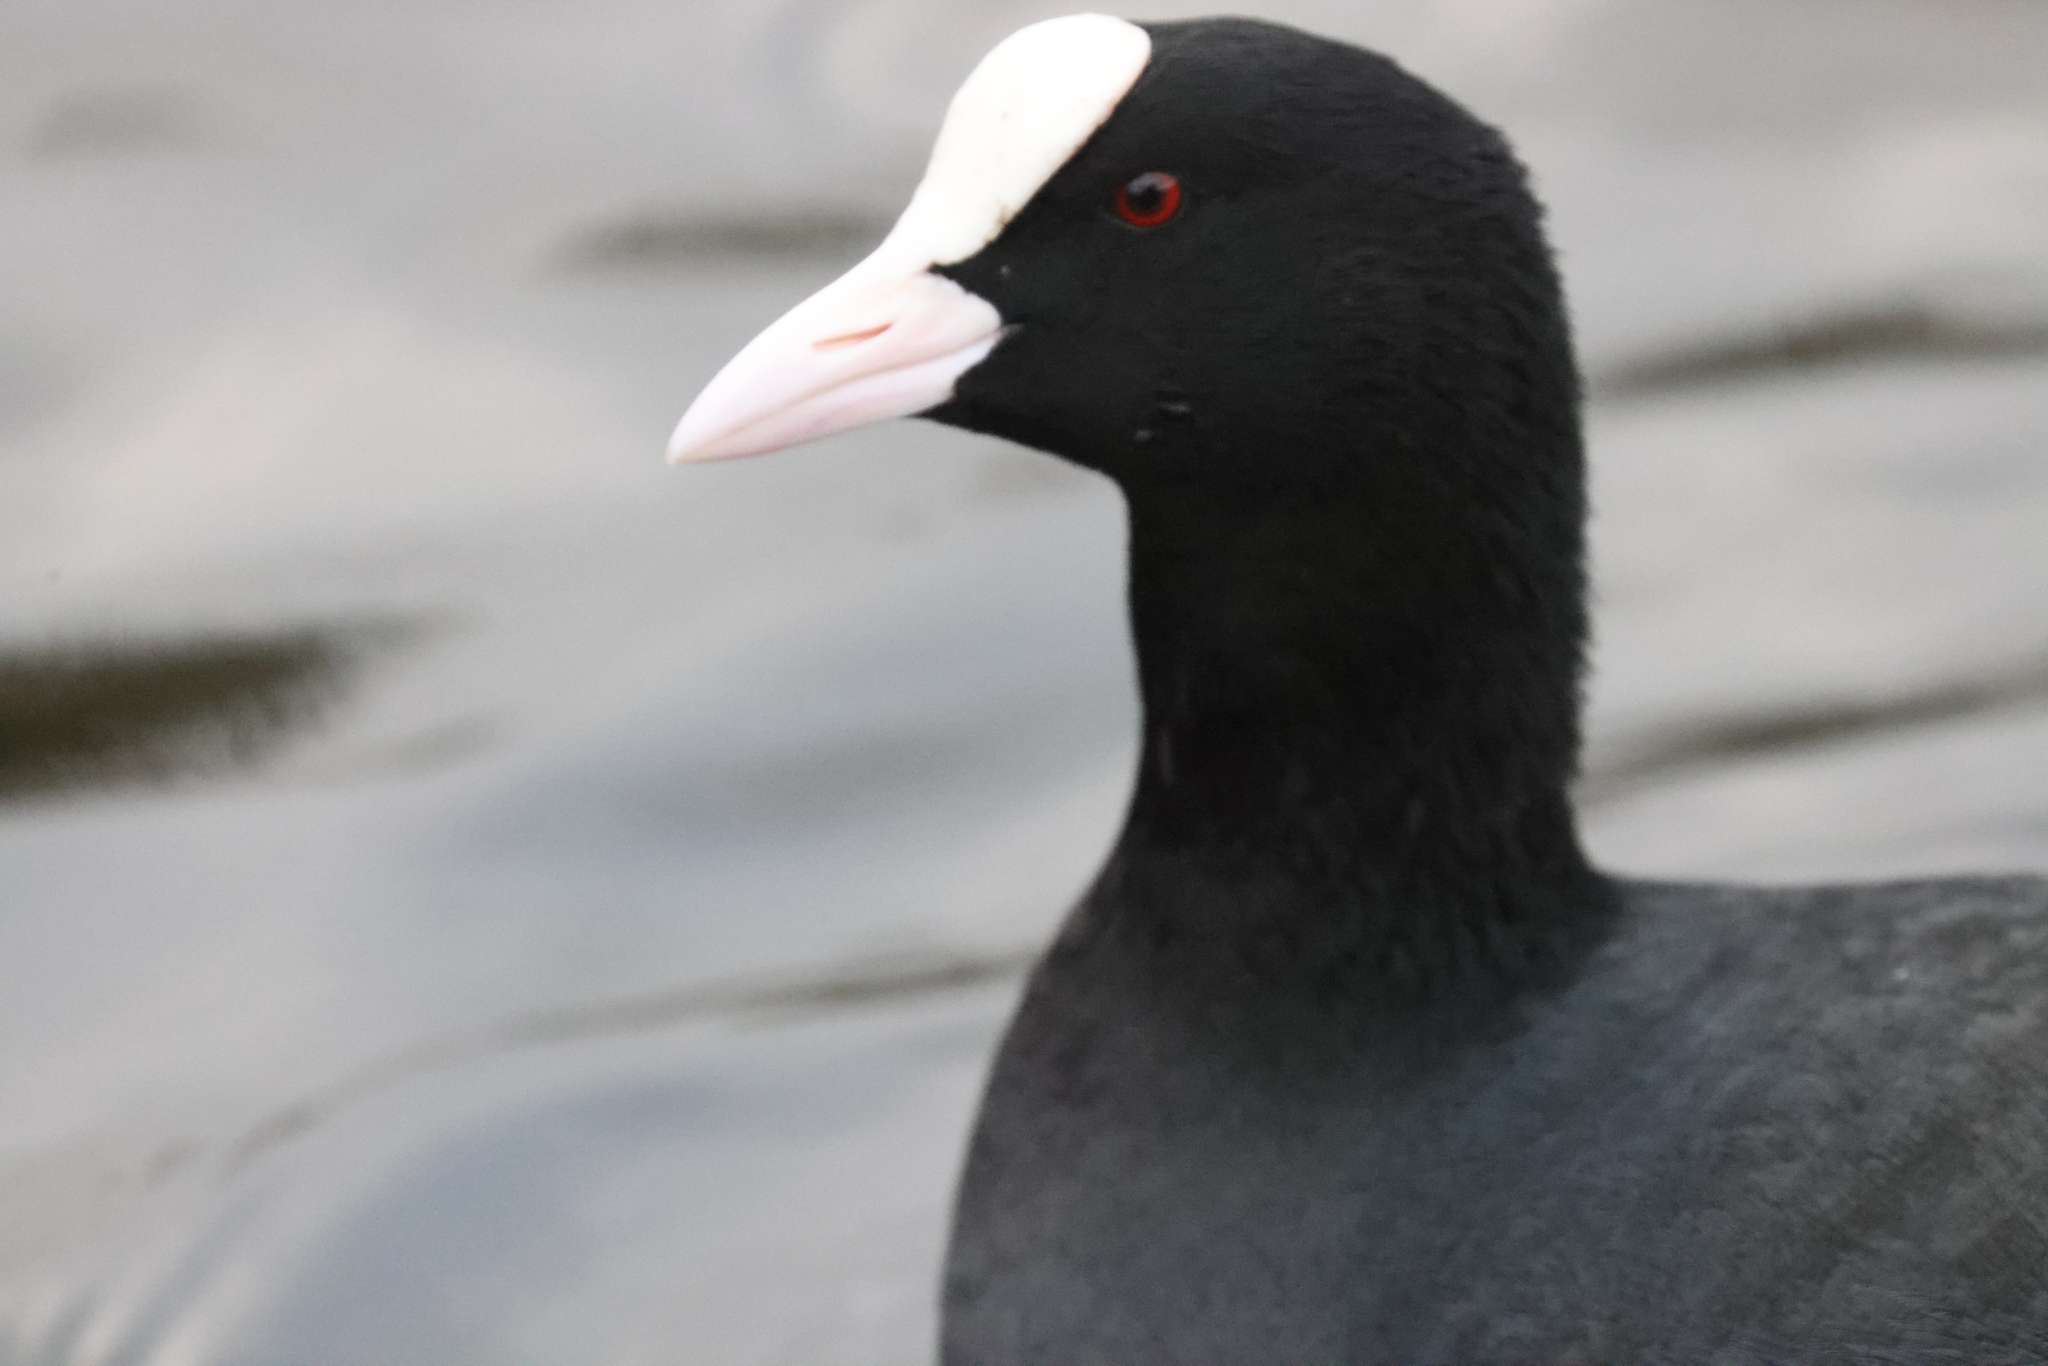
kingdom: Animalia
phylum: Chordata
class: Aves
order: Gruiformes
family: Rallidae
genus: Fulica
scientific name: Fulica atra
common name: Eurasian coot
